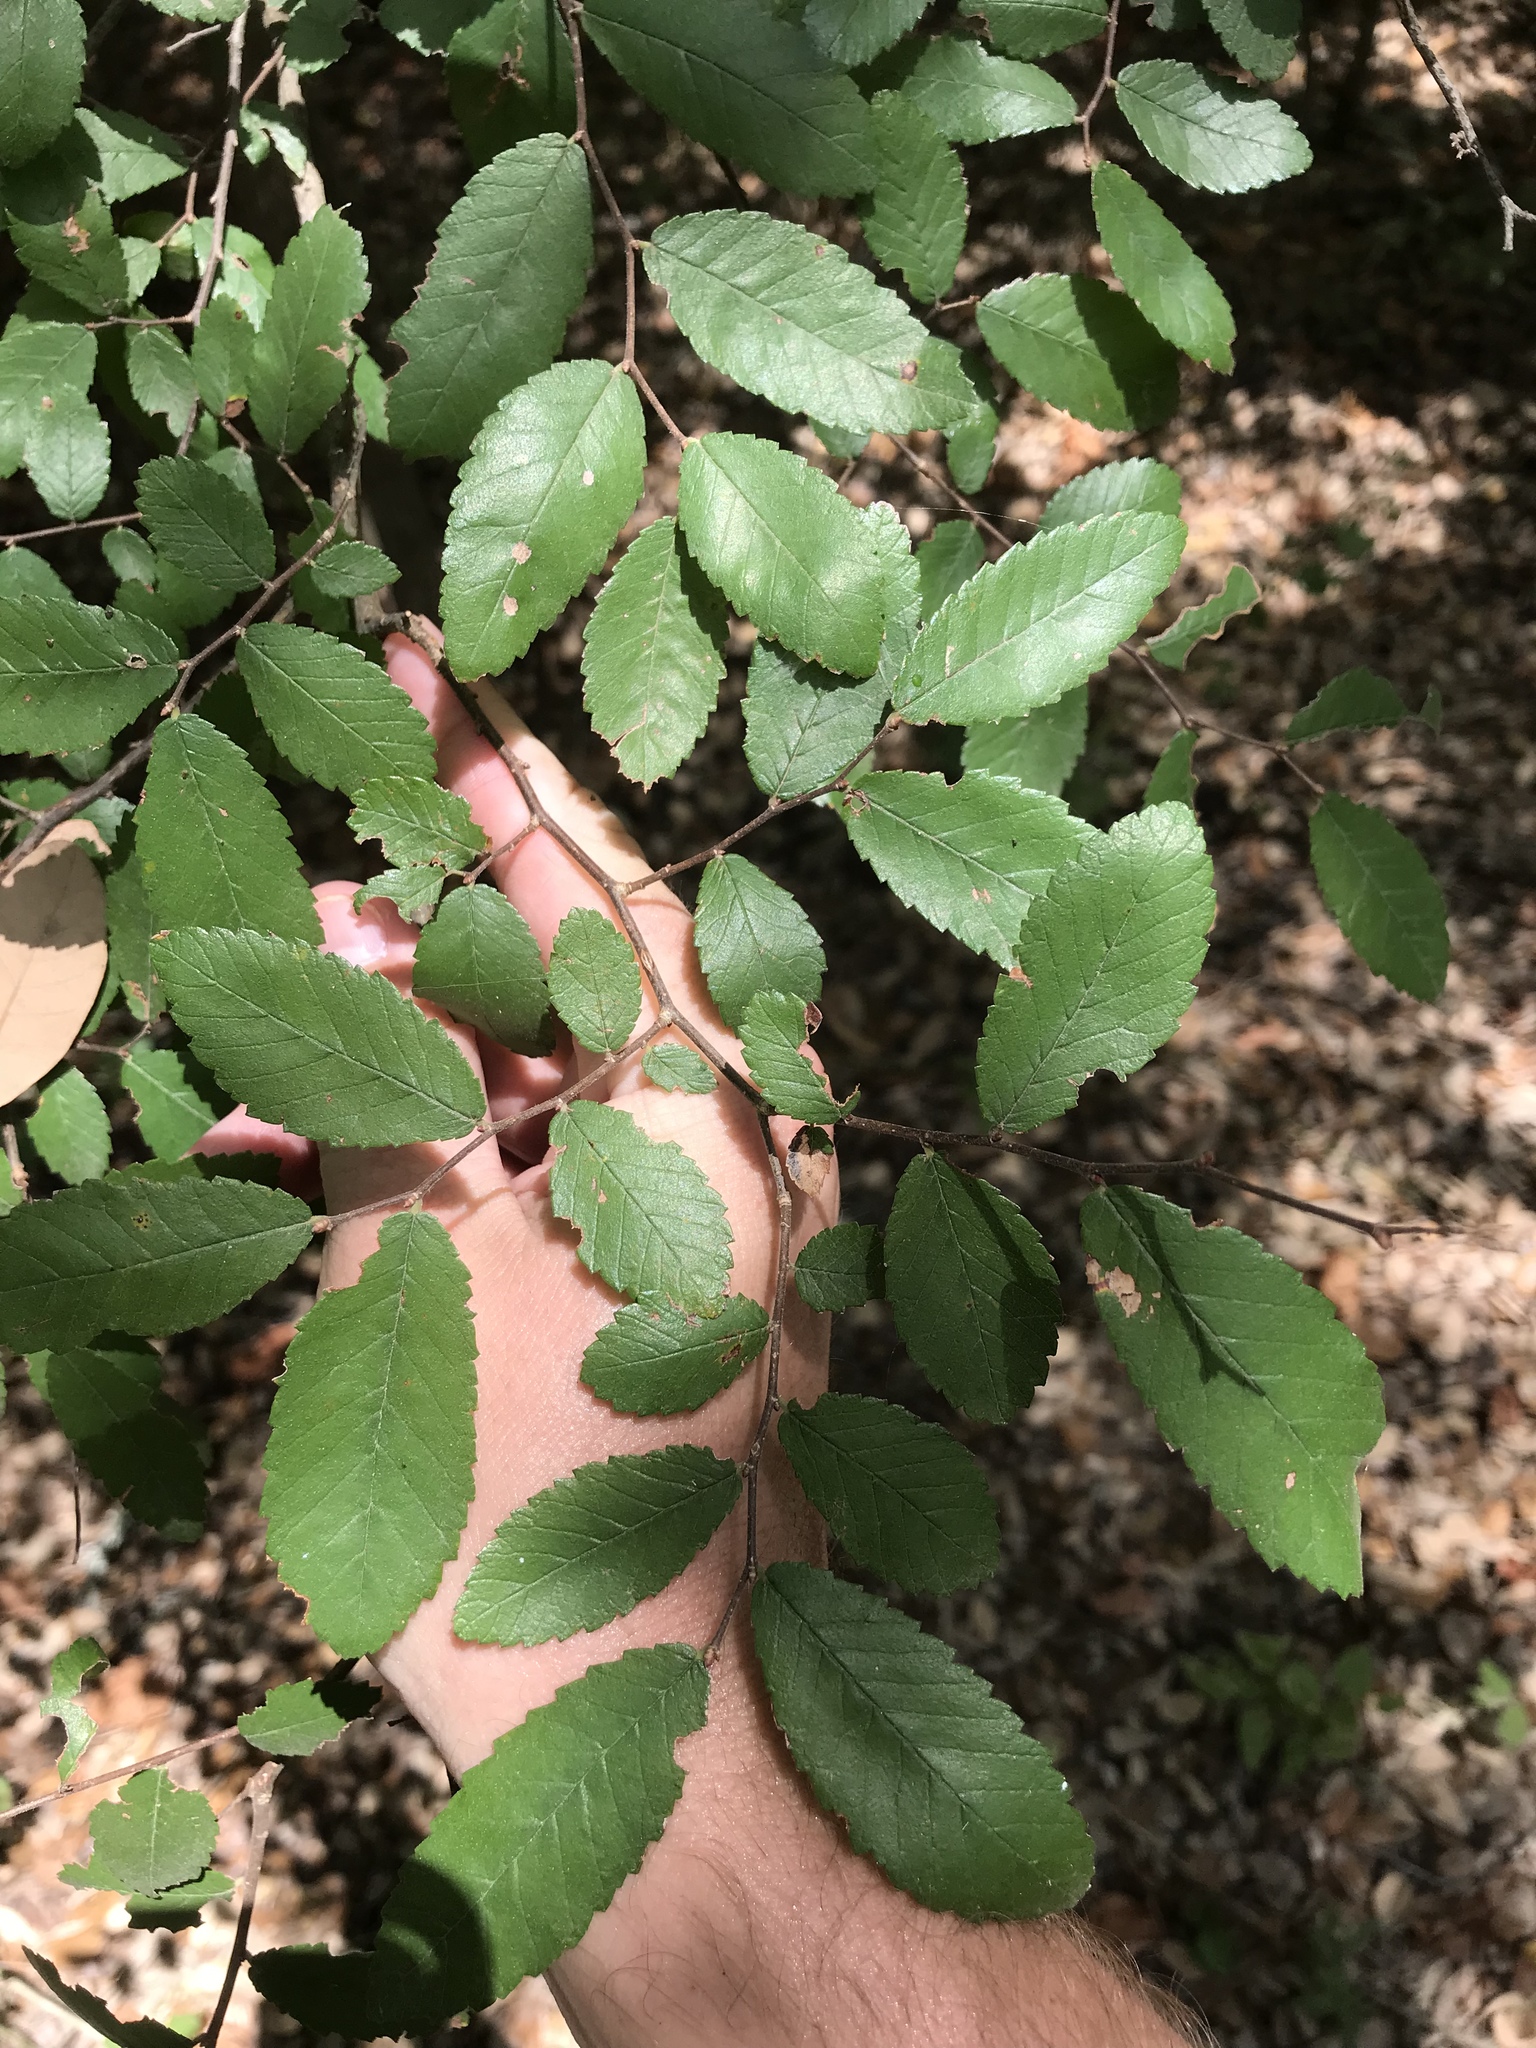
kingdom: Plantae
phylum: Tracheophyta
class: Magnoliopsida
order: Rosales
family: Ulmaceae
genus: Ulmus
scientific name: Ulmus crassifolia
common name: Basket elm
